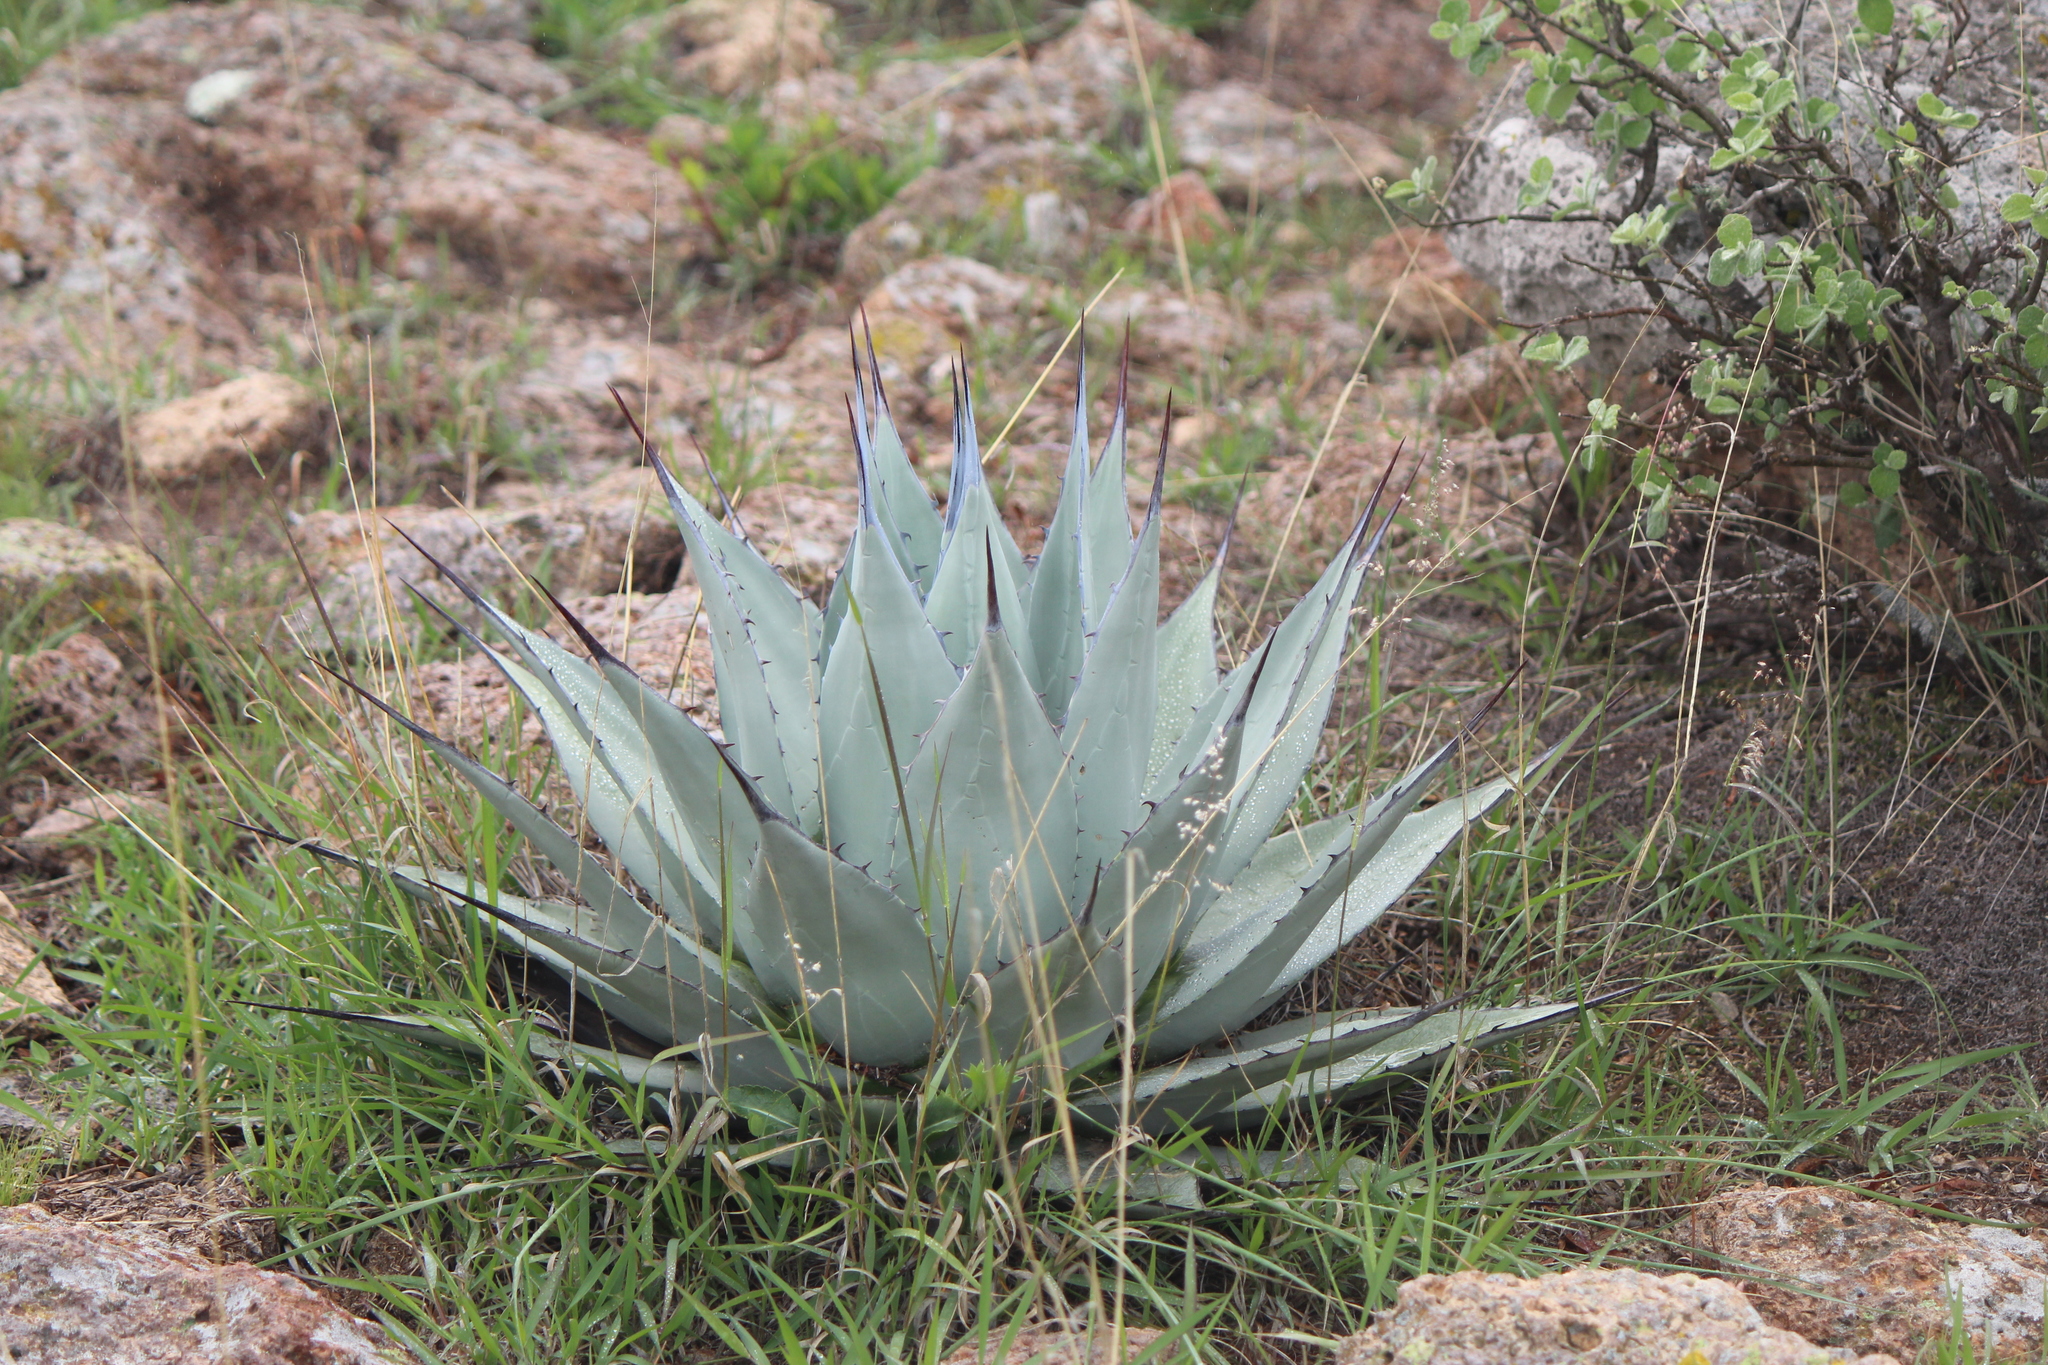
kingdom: Plantae
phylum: Tracheophyta
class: Liliopsida
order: Asparagales
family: Asparagaceae
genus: Agave
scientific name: Agave applanata
